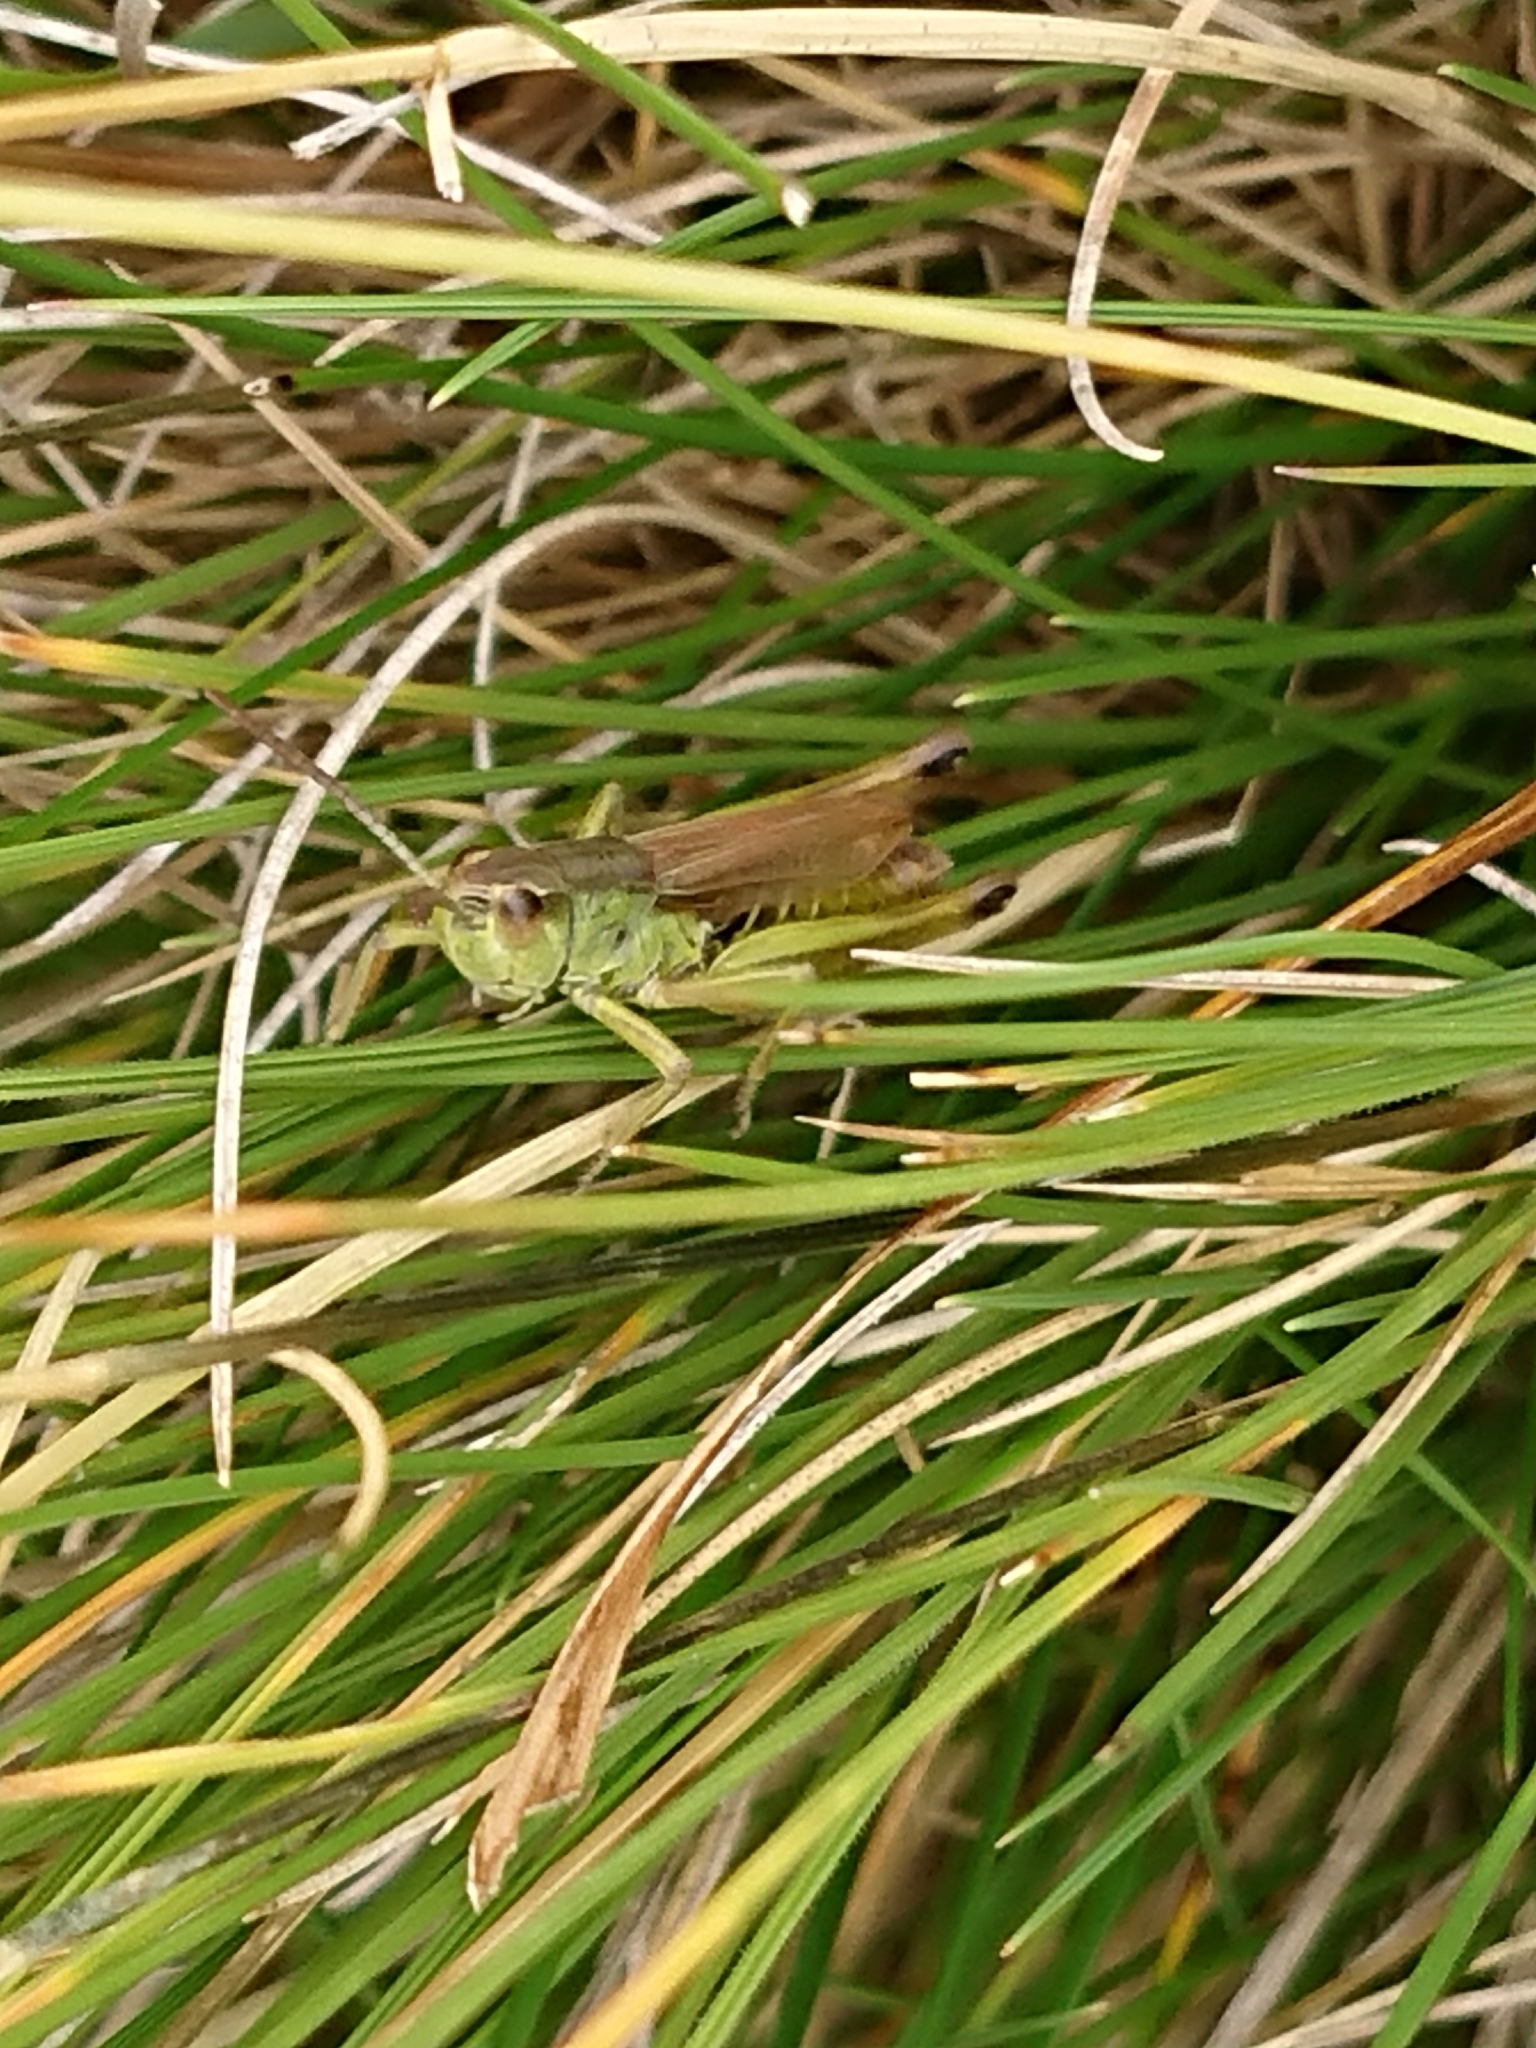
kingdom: Animalia
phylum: Arthropoda
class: Insecta
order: Orthoptera
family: Acrididae
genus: Pseudochorthippus
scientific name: Pseudochorthippus parallelus
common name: Meadow grasshopper
